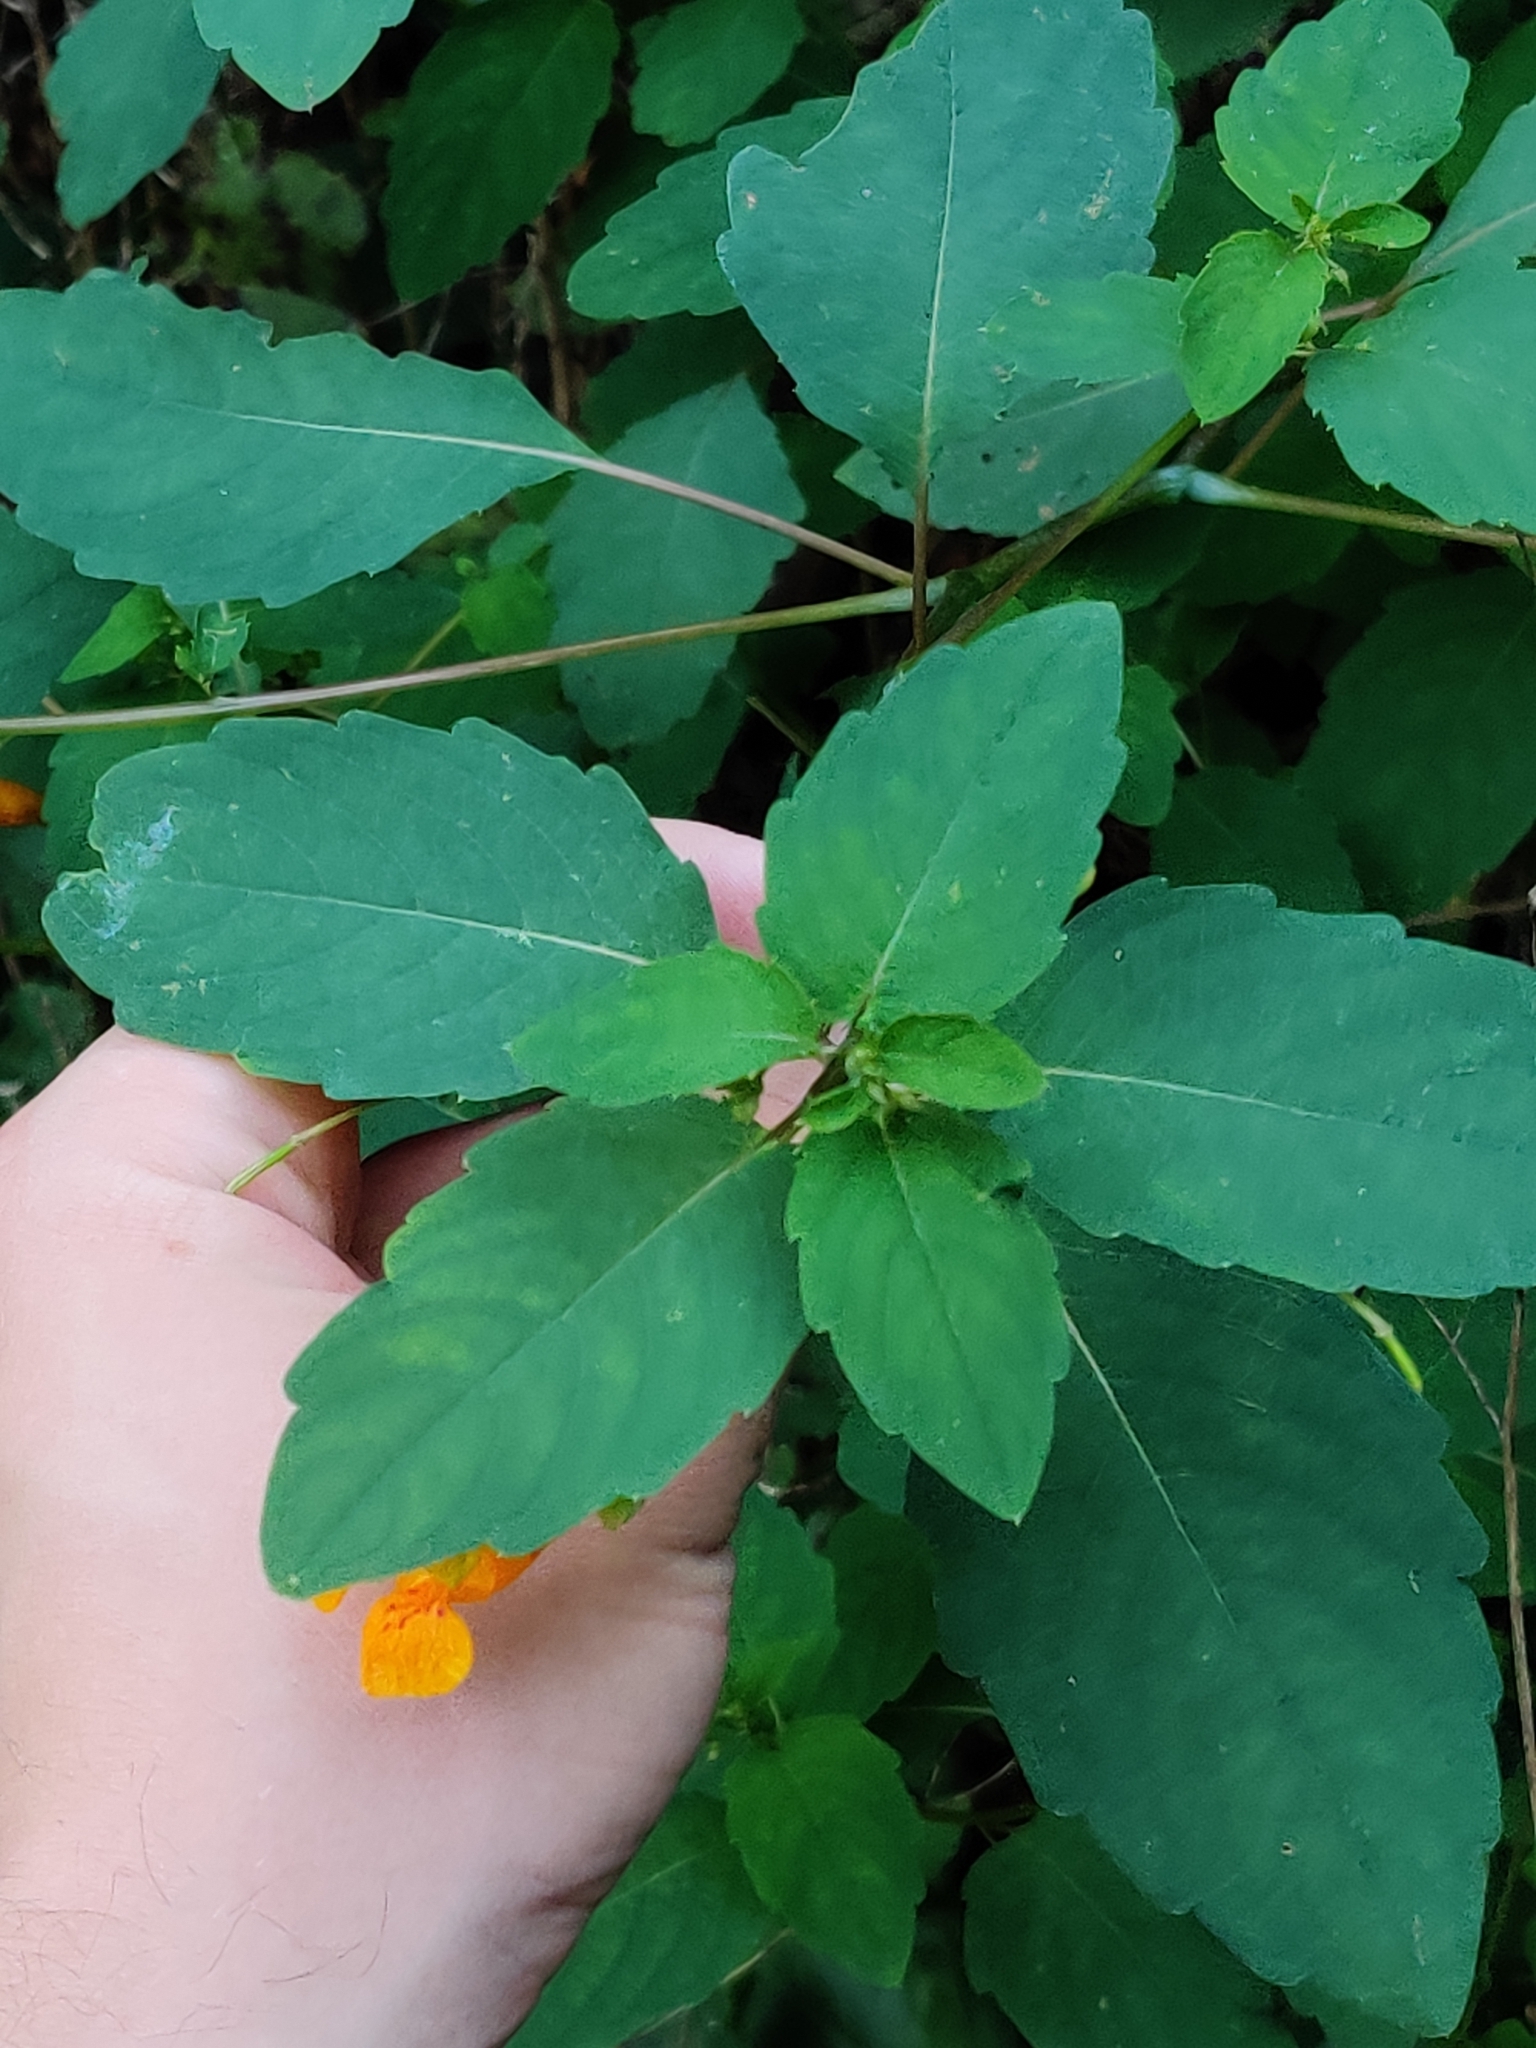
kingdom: Plantae
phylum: Tracheophyta
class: Magnoliopsida
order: Ericales
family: Balsaminaceae
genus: Impatiens
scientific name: Impatiens capensis
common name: Orange balsam
